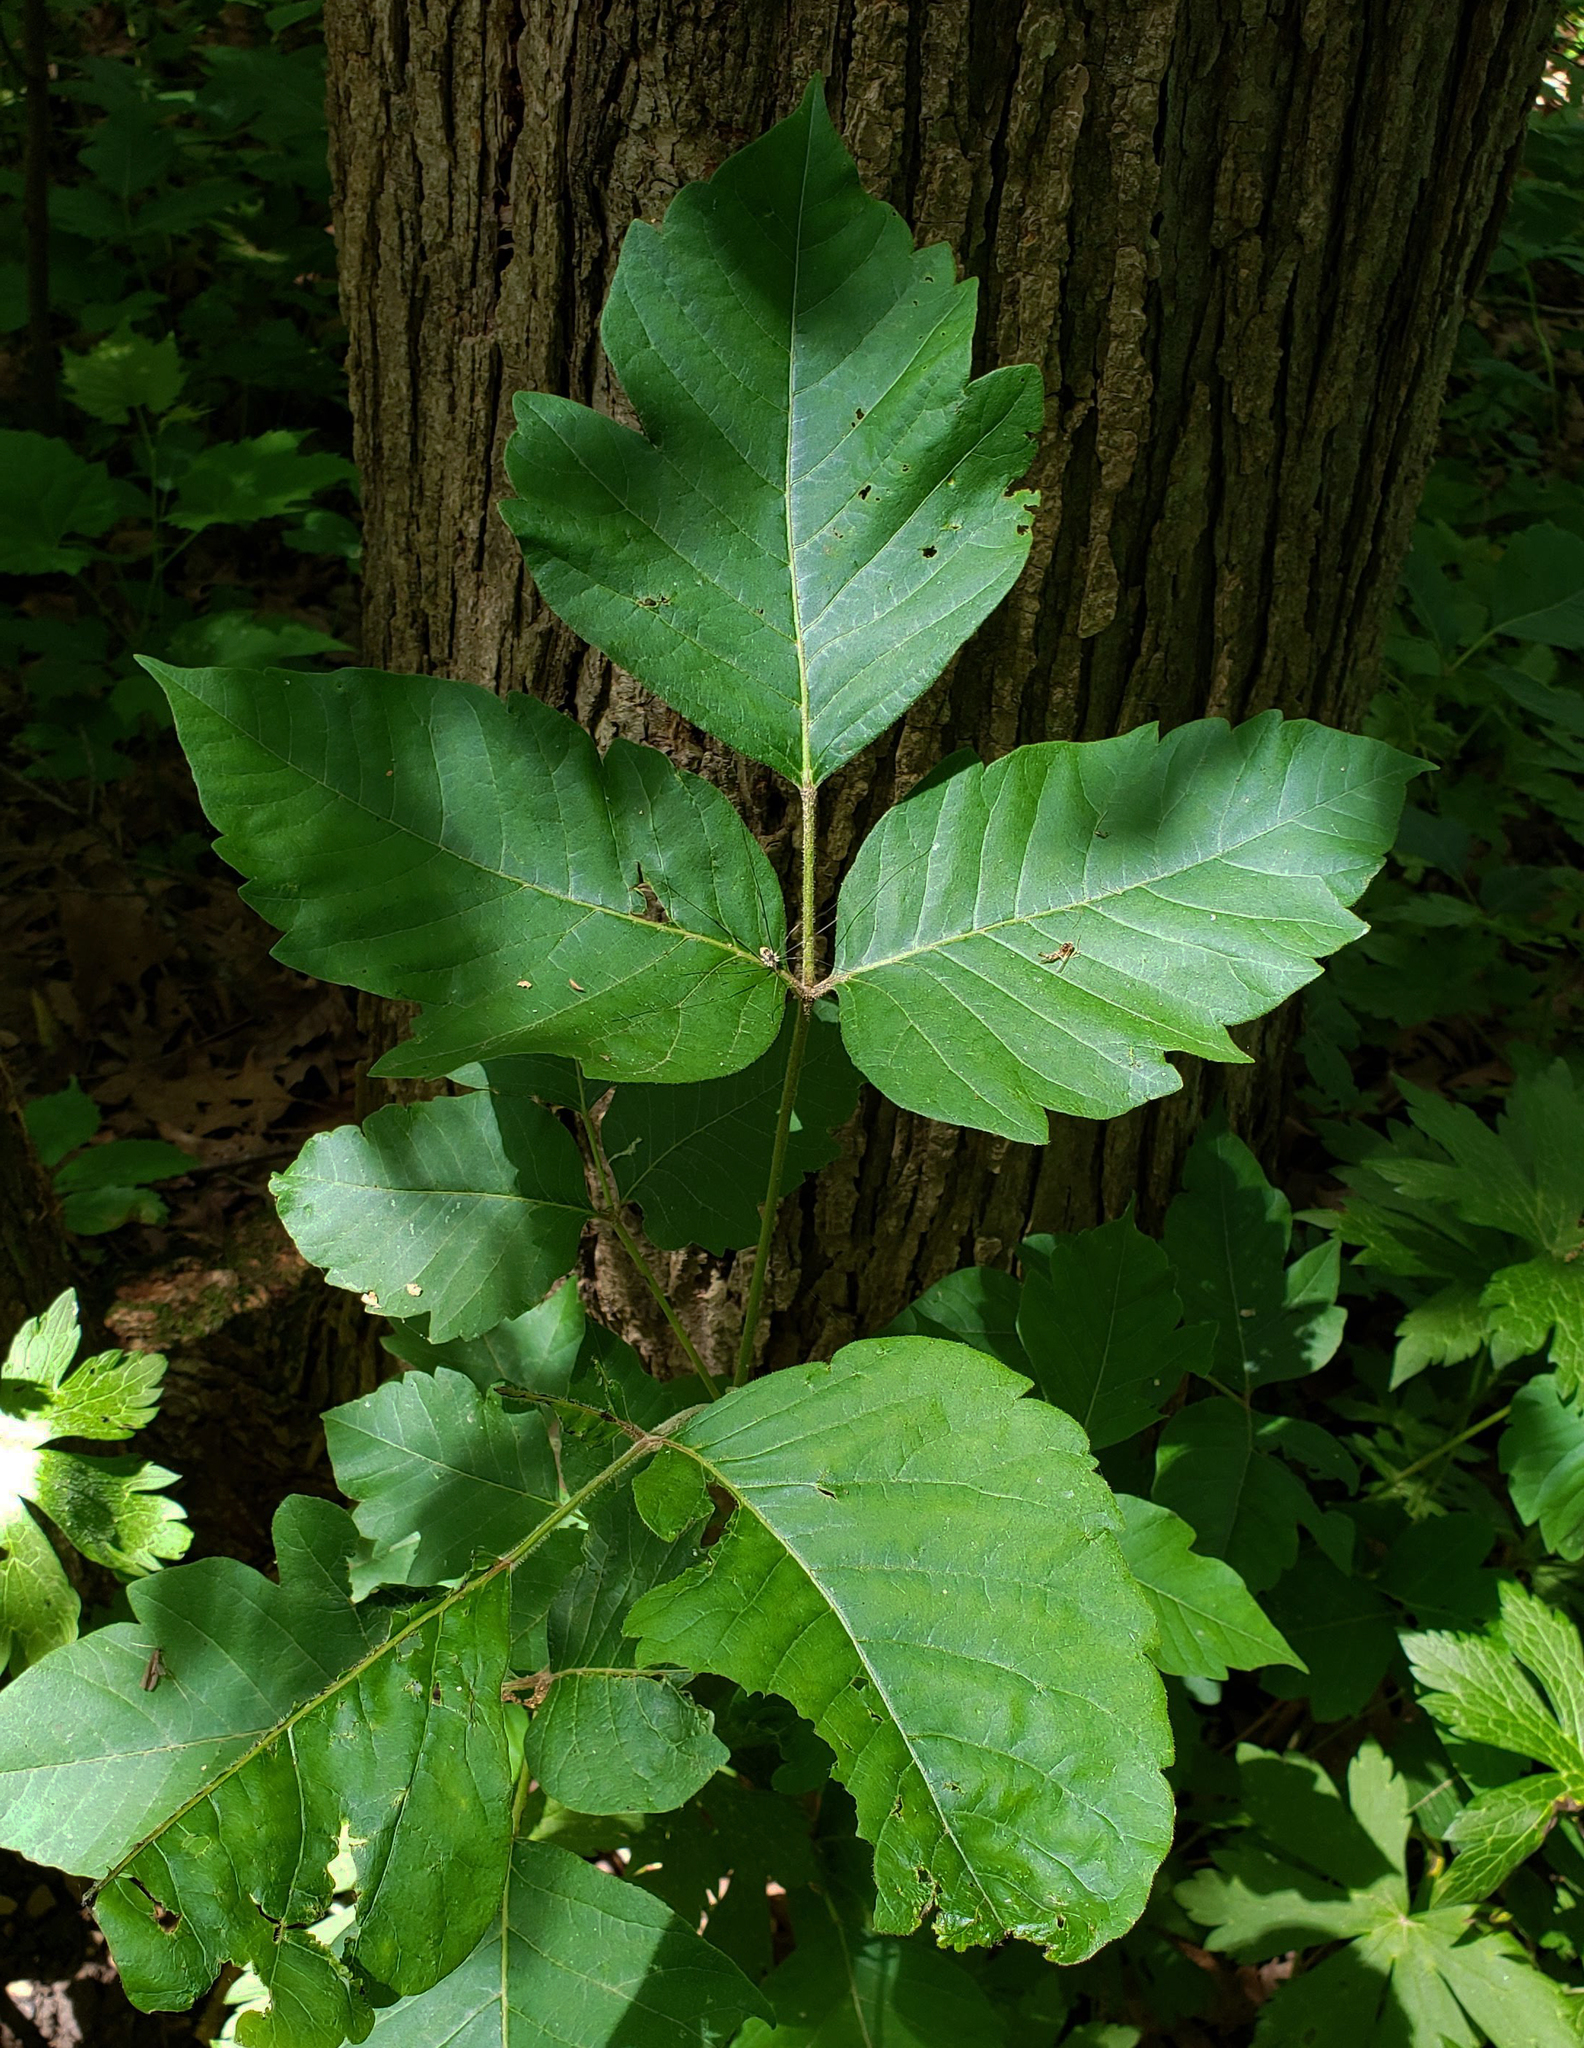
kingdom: Plantae
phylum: Tracheophyta
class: Magnoliopsida
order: Sapindales
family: Anacardiaceae
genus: Toxicodendron
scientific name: Toxicodendron radicans
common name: Poison ivy
